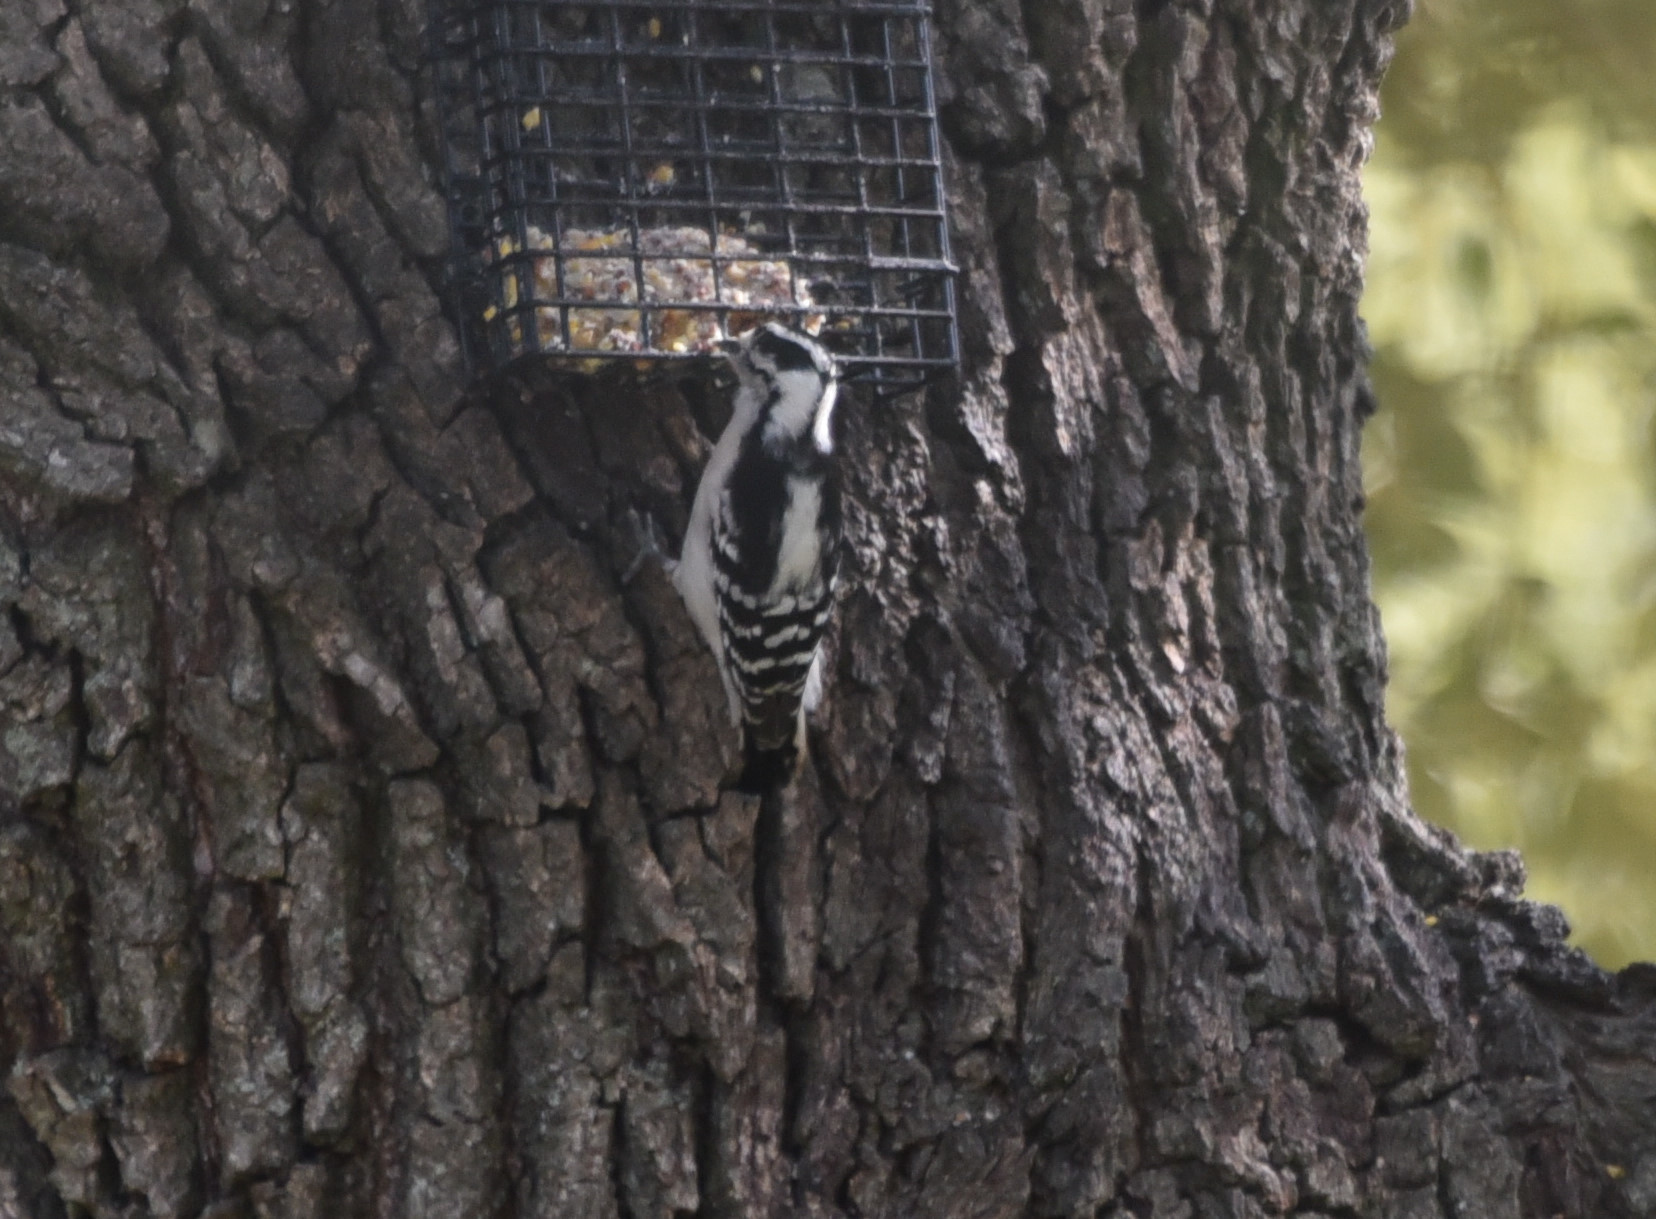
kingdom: Animalia
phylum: Chordata
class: Aves
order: Piciformes
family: Picidae
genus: Dryobates
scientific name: Dryobates pubescens
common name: Downy woodpecker
